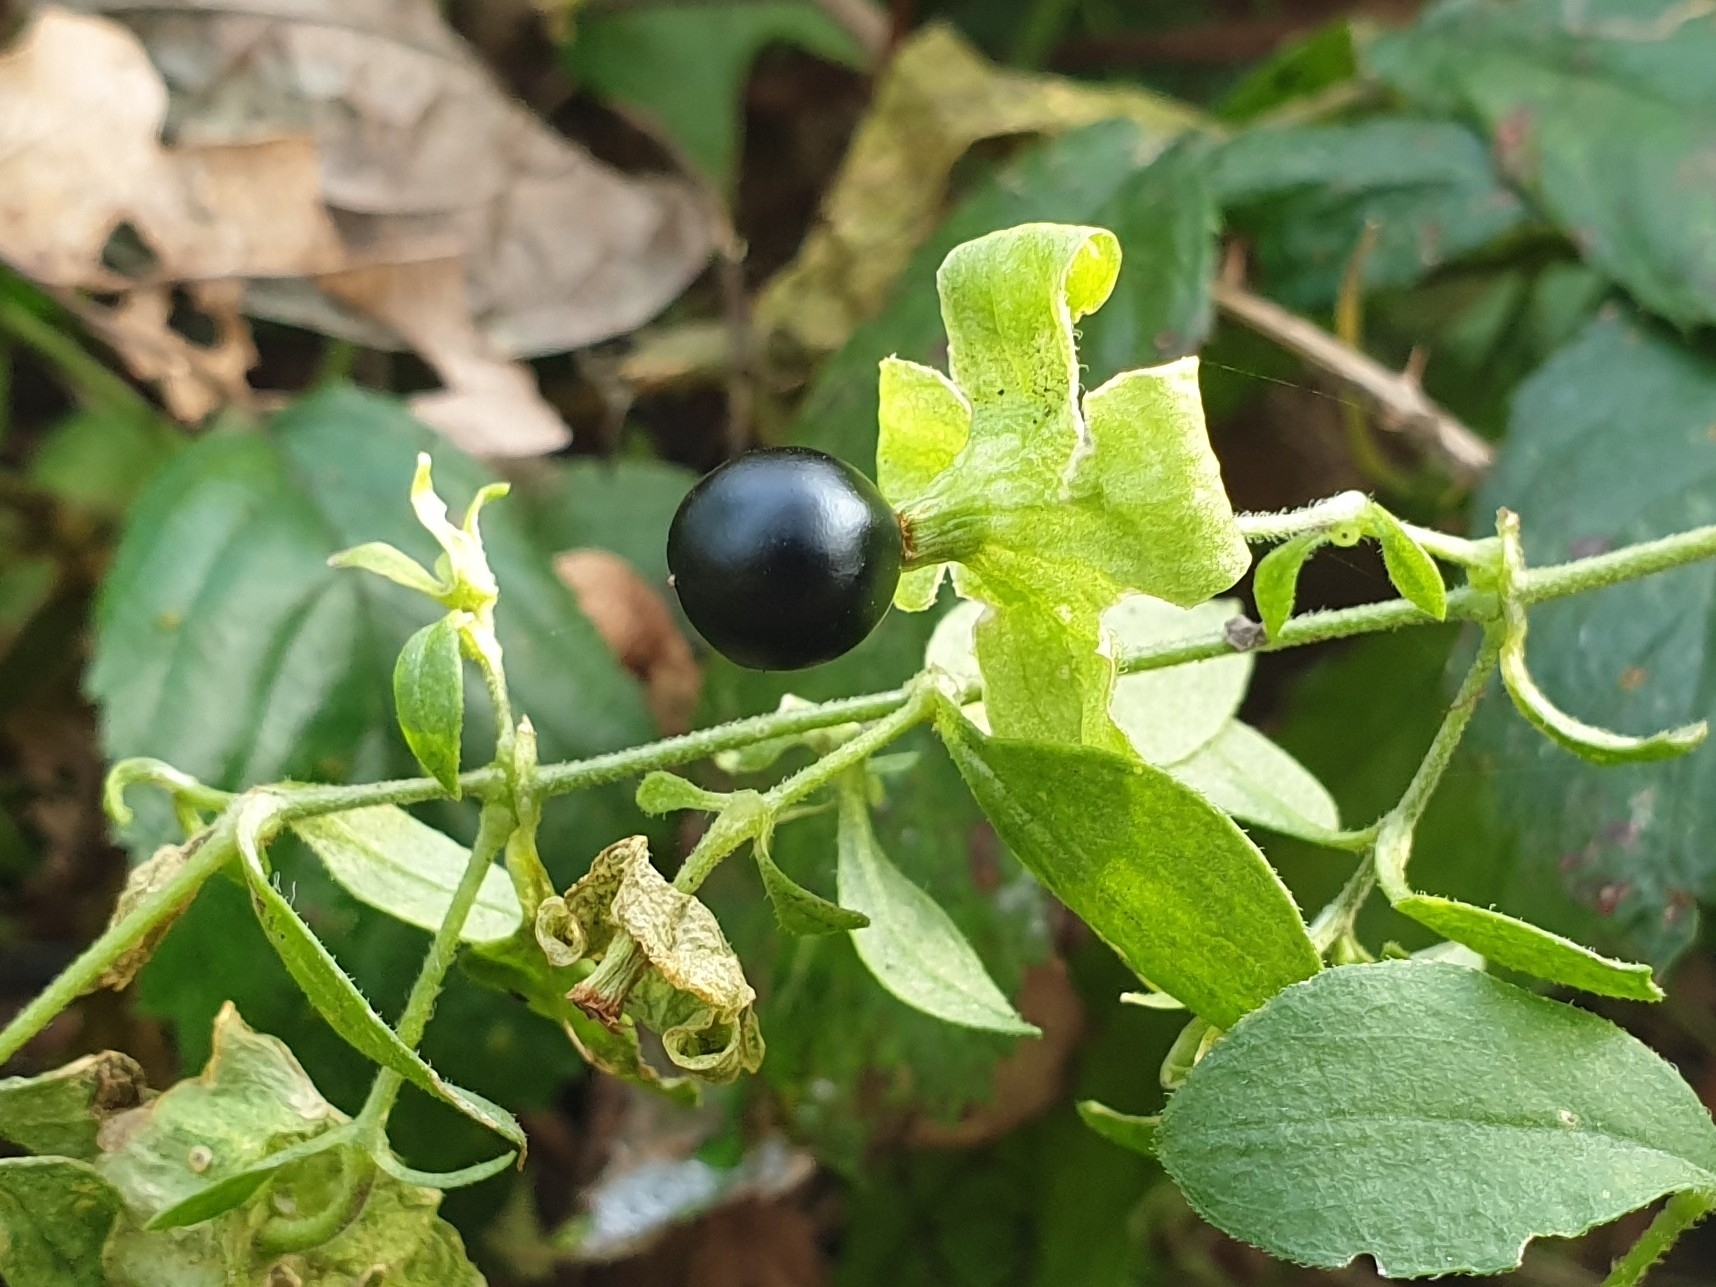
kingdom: Plantae
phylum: Tracheophyta
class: Magnoliopsida
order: Caryophyllales
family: Caryophyllaceae
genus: Silene
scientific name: Silene baccifera
